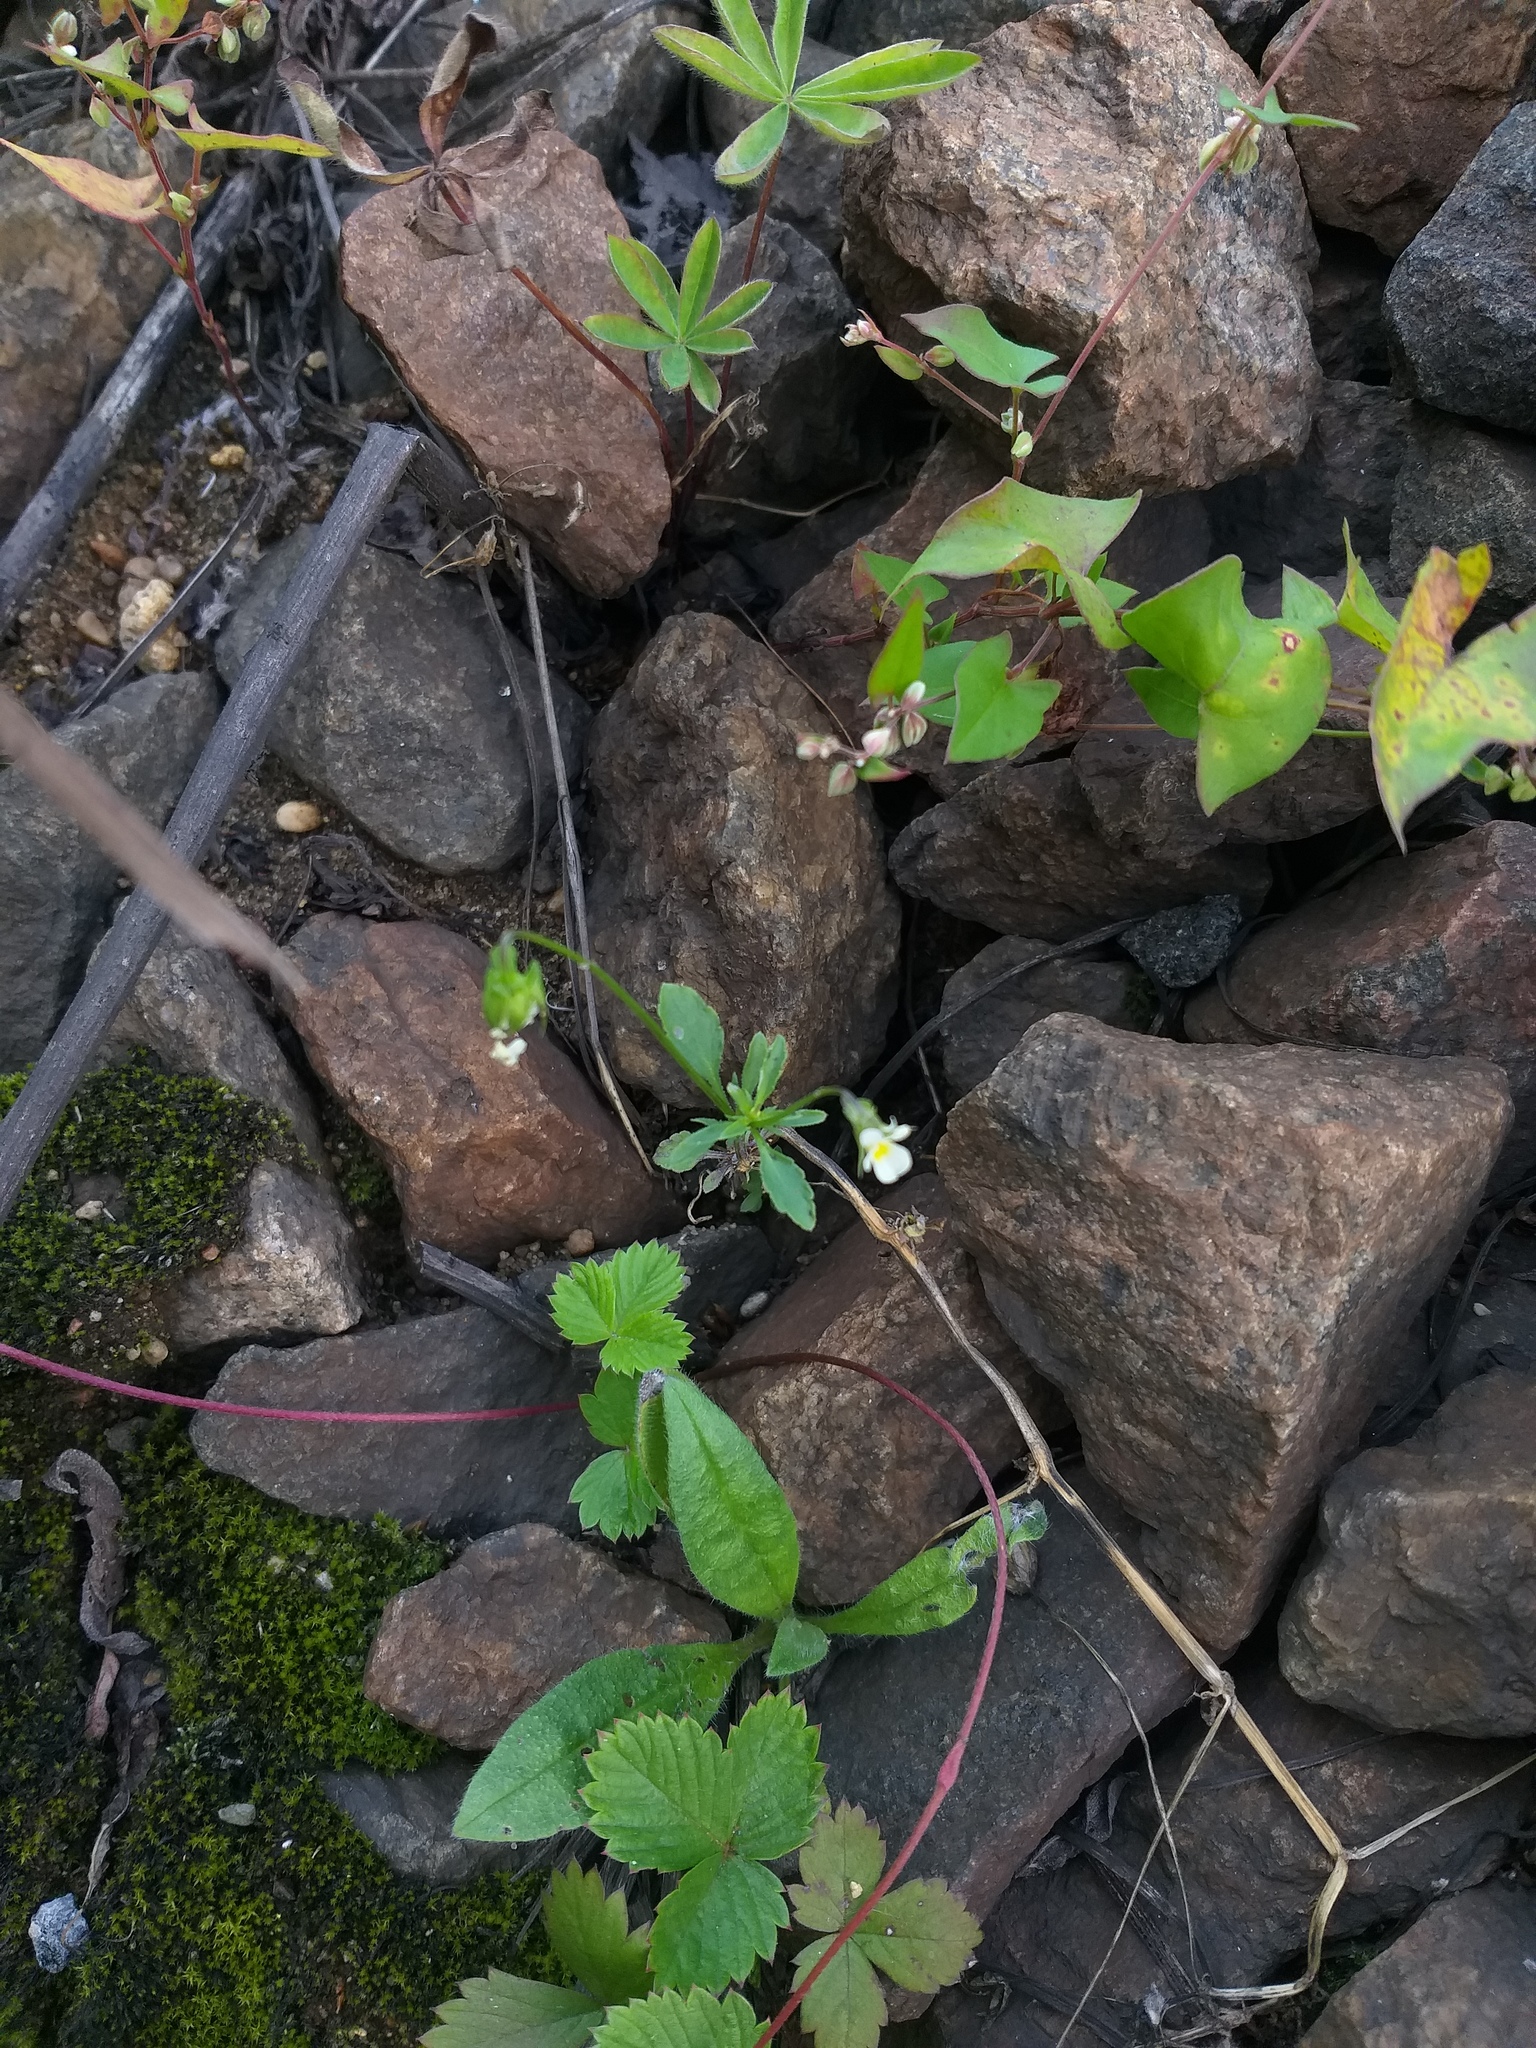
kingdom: Plantae
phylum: Tracheophyta
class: Magnoliopsida
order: Malpighiales
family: Violaceae
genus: Viola
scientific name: Viola arvensis
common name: Field pansy
